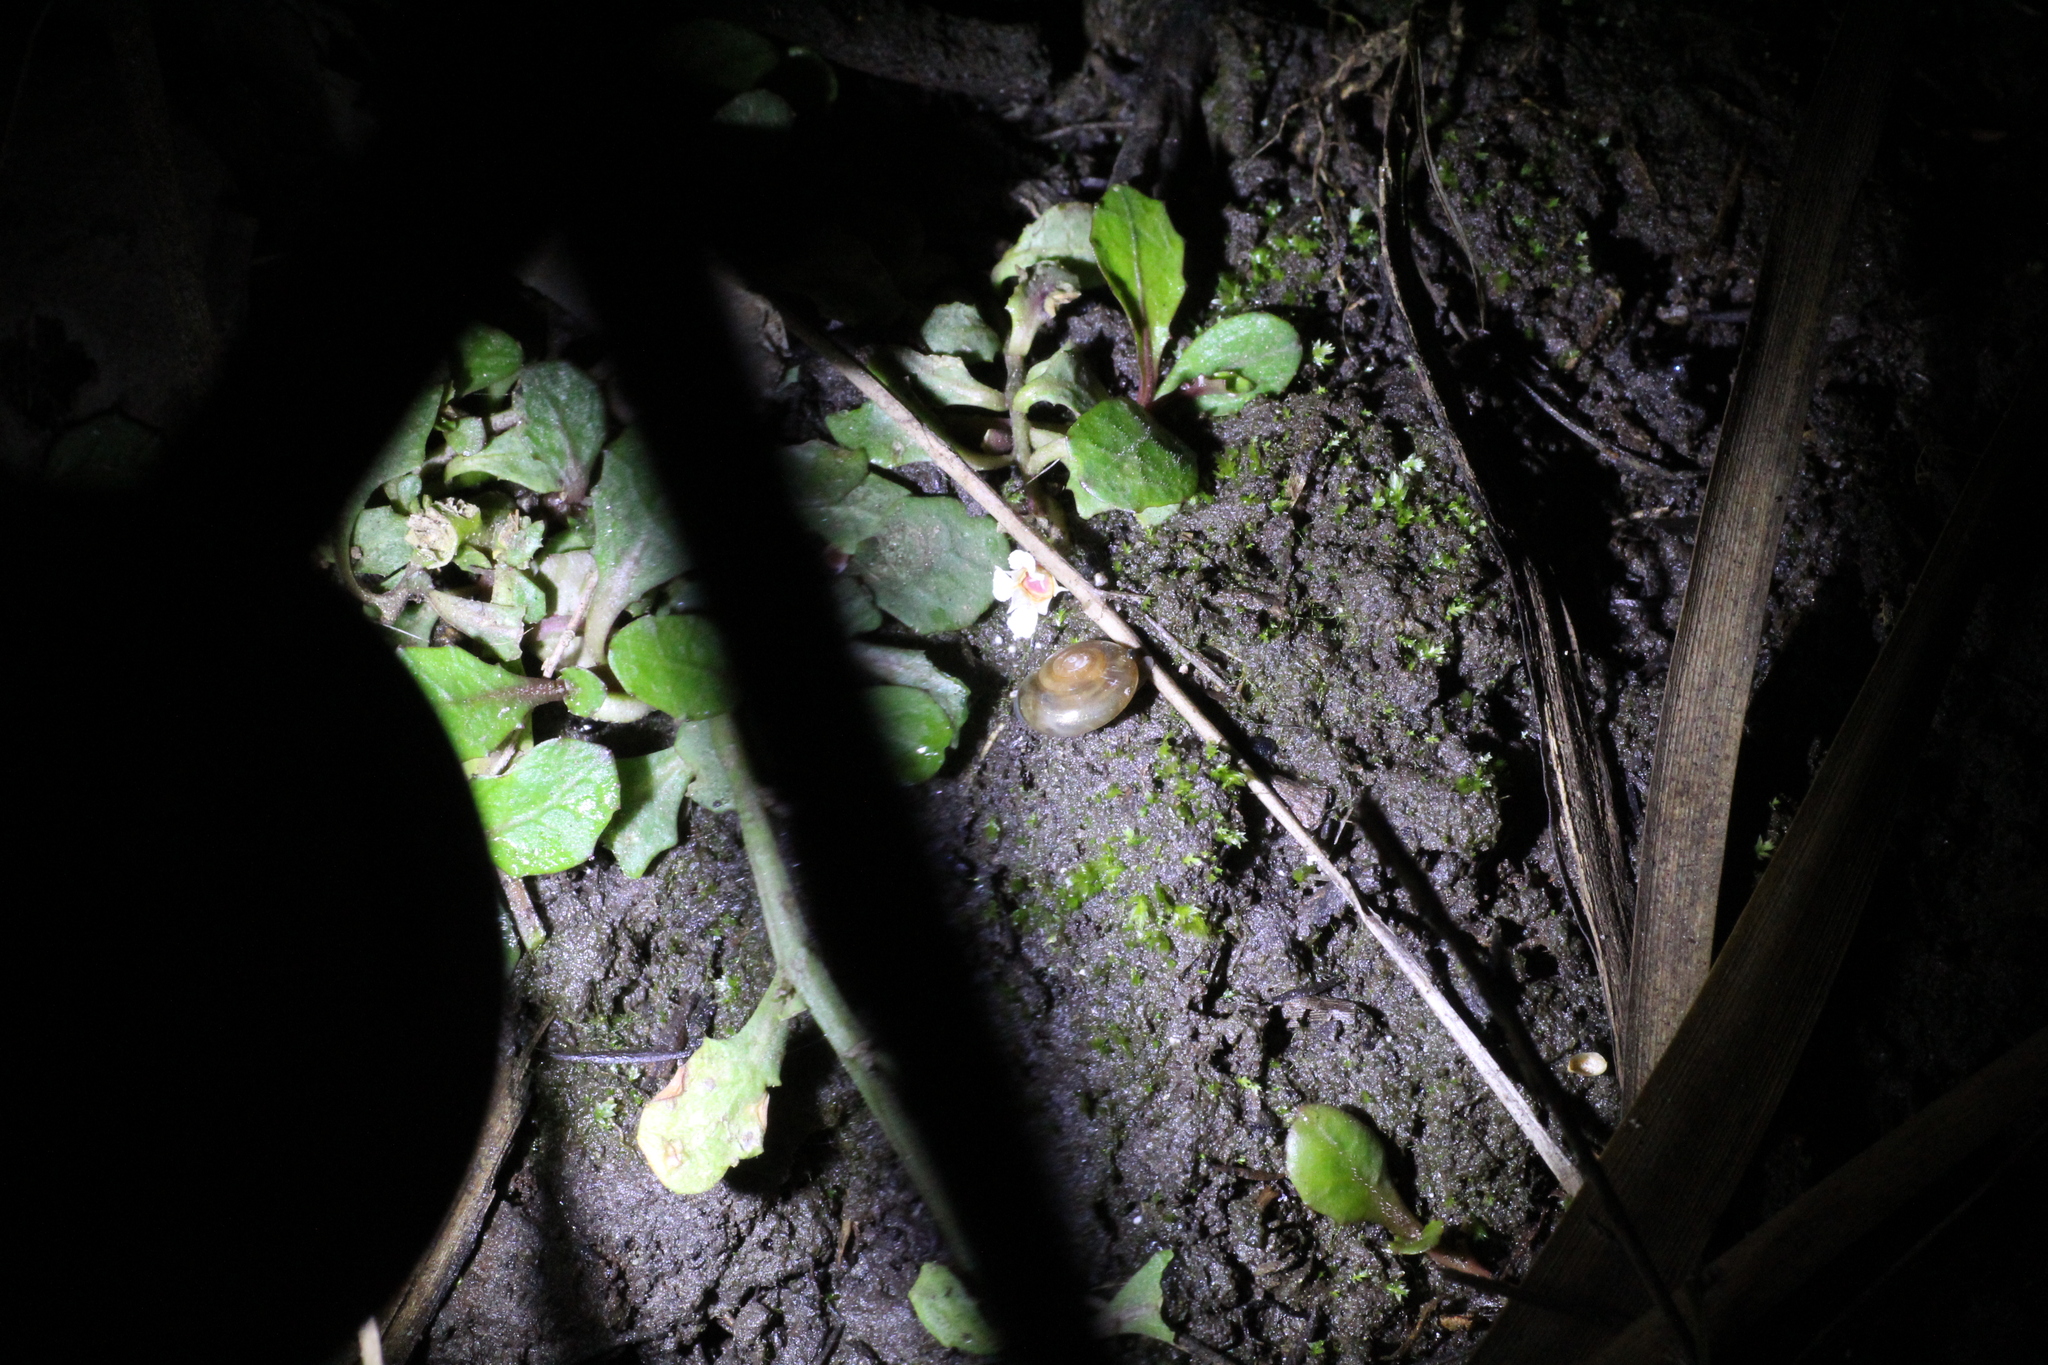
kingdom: Animalia
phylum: Mollusca
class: Gastropoda
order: Stylommatophora
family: Oxychilidae
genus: Oxychilus
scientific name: Oxychilus alliarius
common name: Garlic glass-snail
